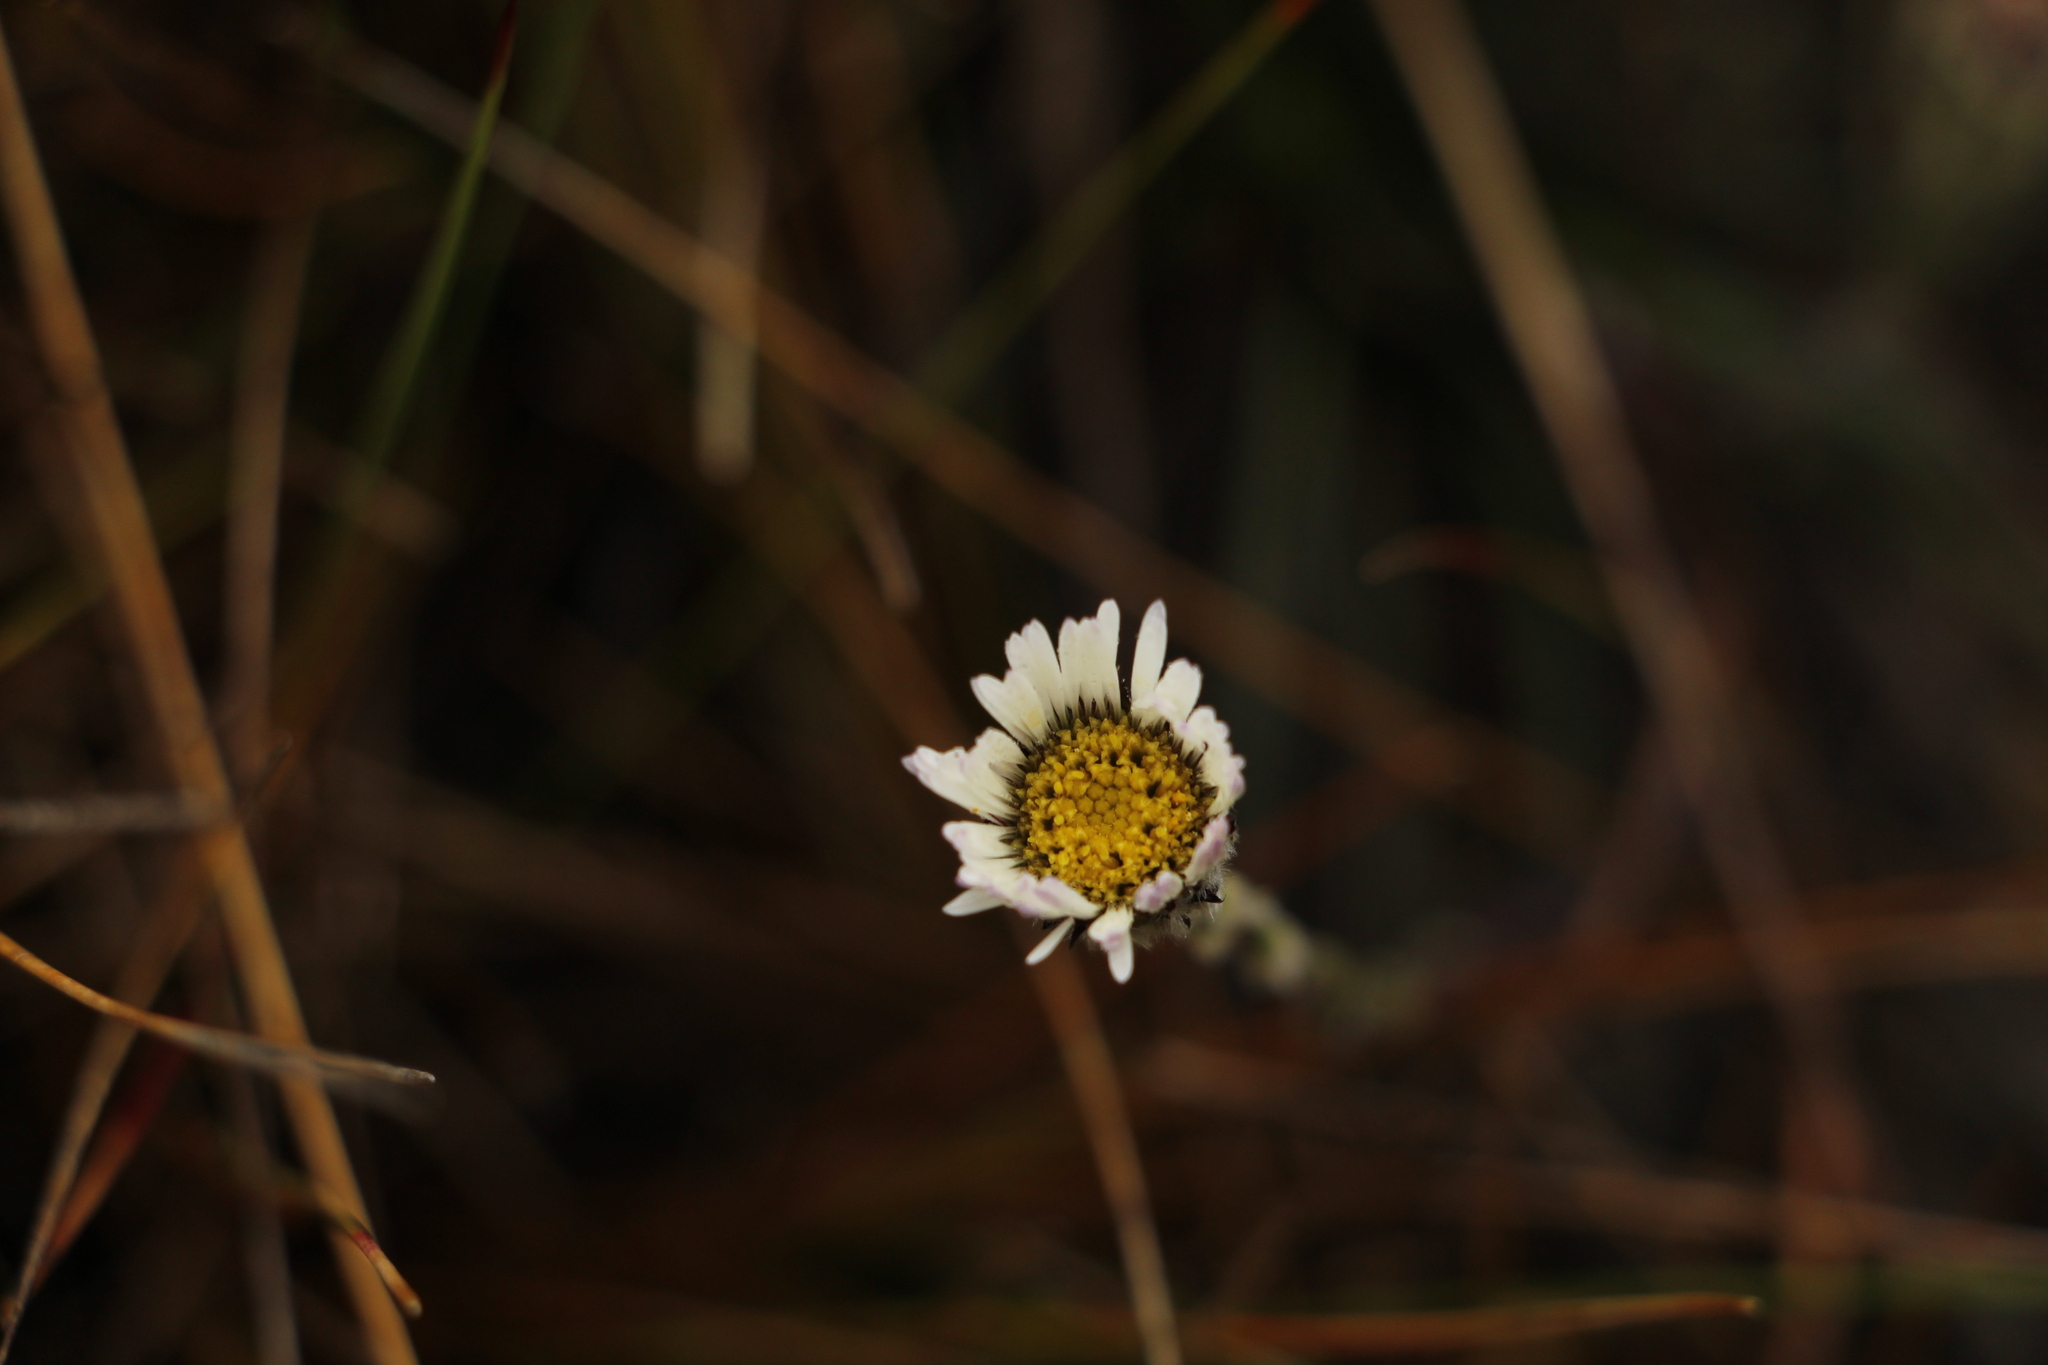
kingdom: Plantae
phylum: Tracheophyta
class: Magnoliopsida
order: Asterales
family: Asteraceae
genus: Oritrophium
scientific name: Oritrophium peruvianum
